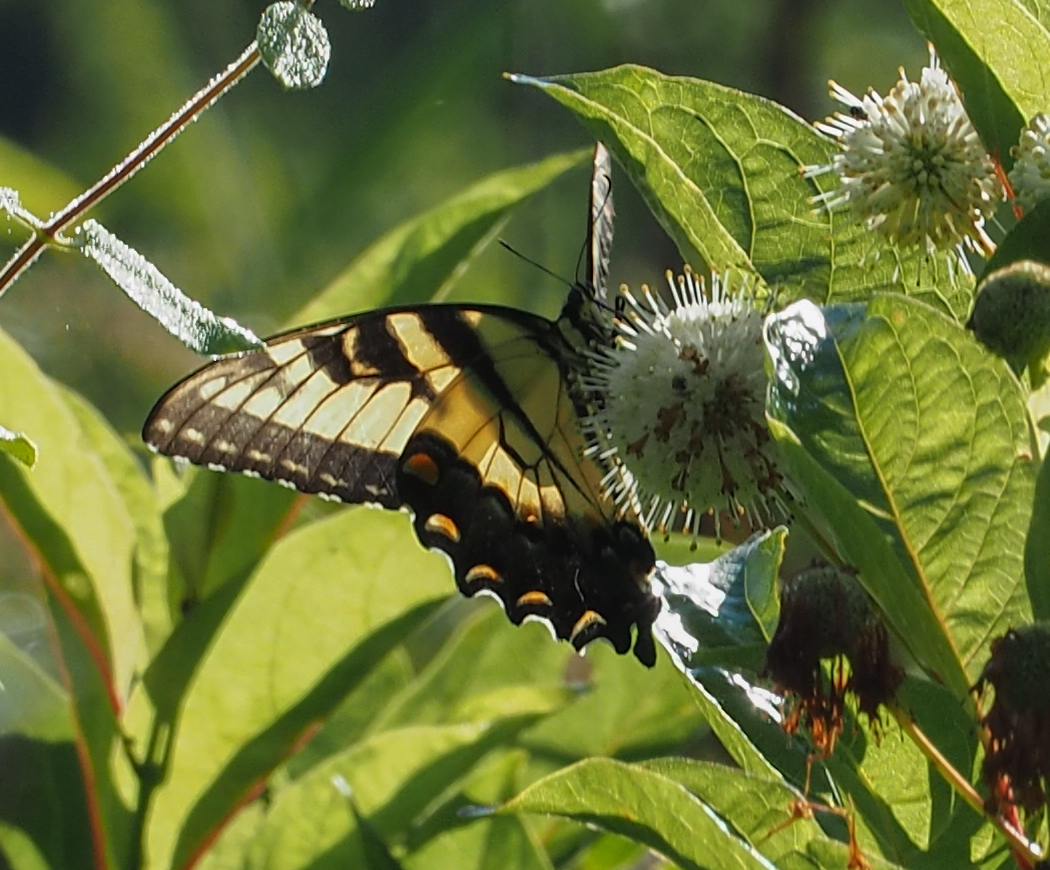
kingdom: Animalia
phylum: Arthropoda
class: Insecta
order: Lepidoptera
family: Papilionidae
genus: Papilio
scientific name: Papilio glaucus
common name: Tiger swallowtail
